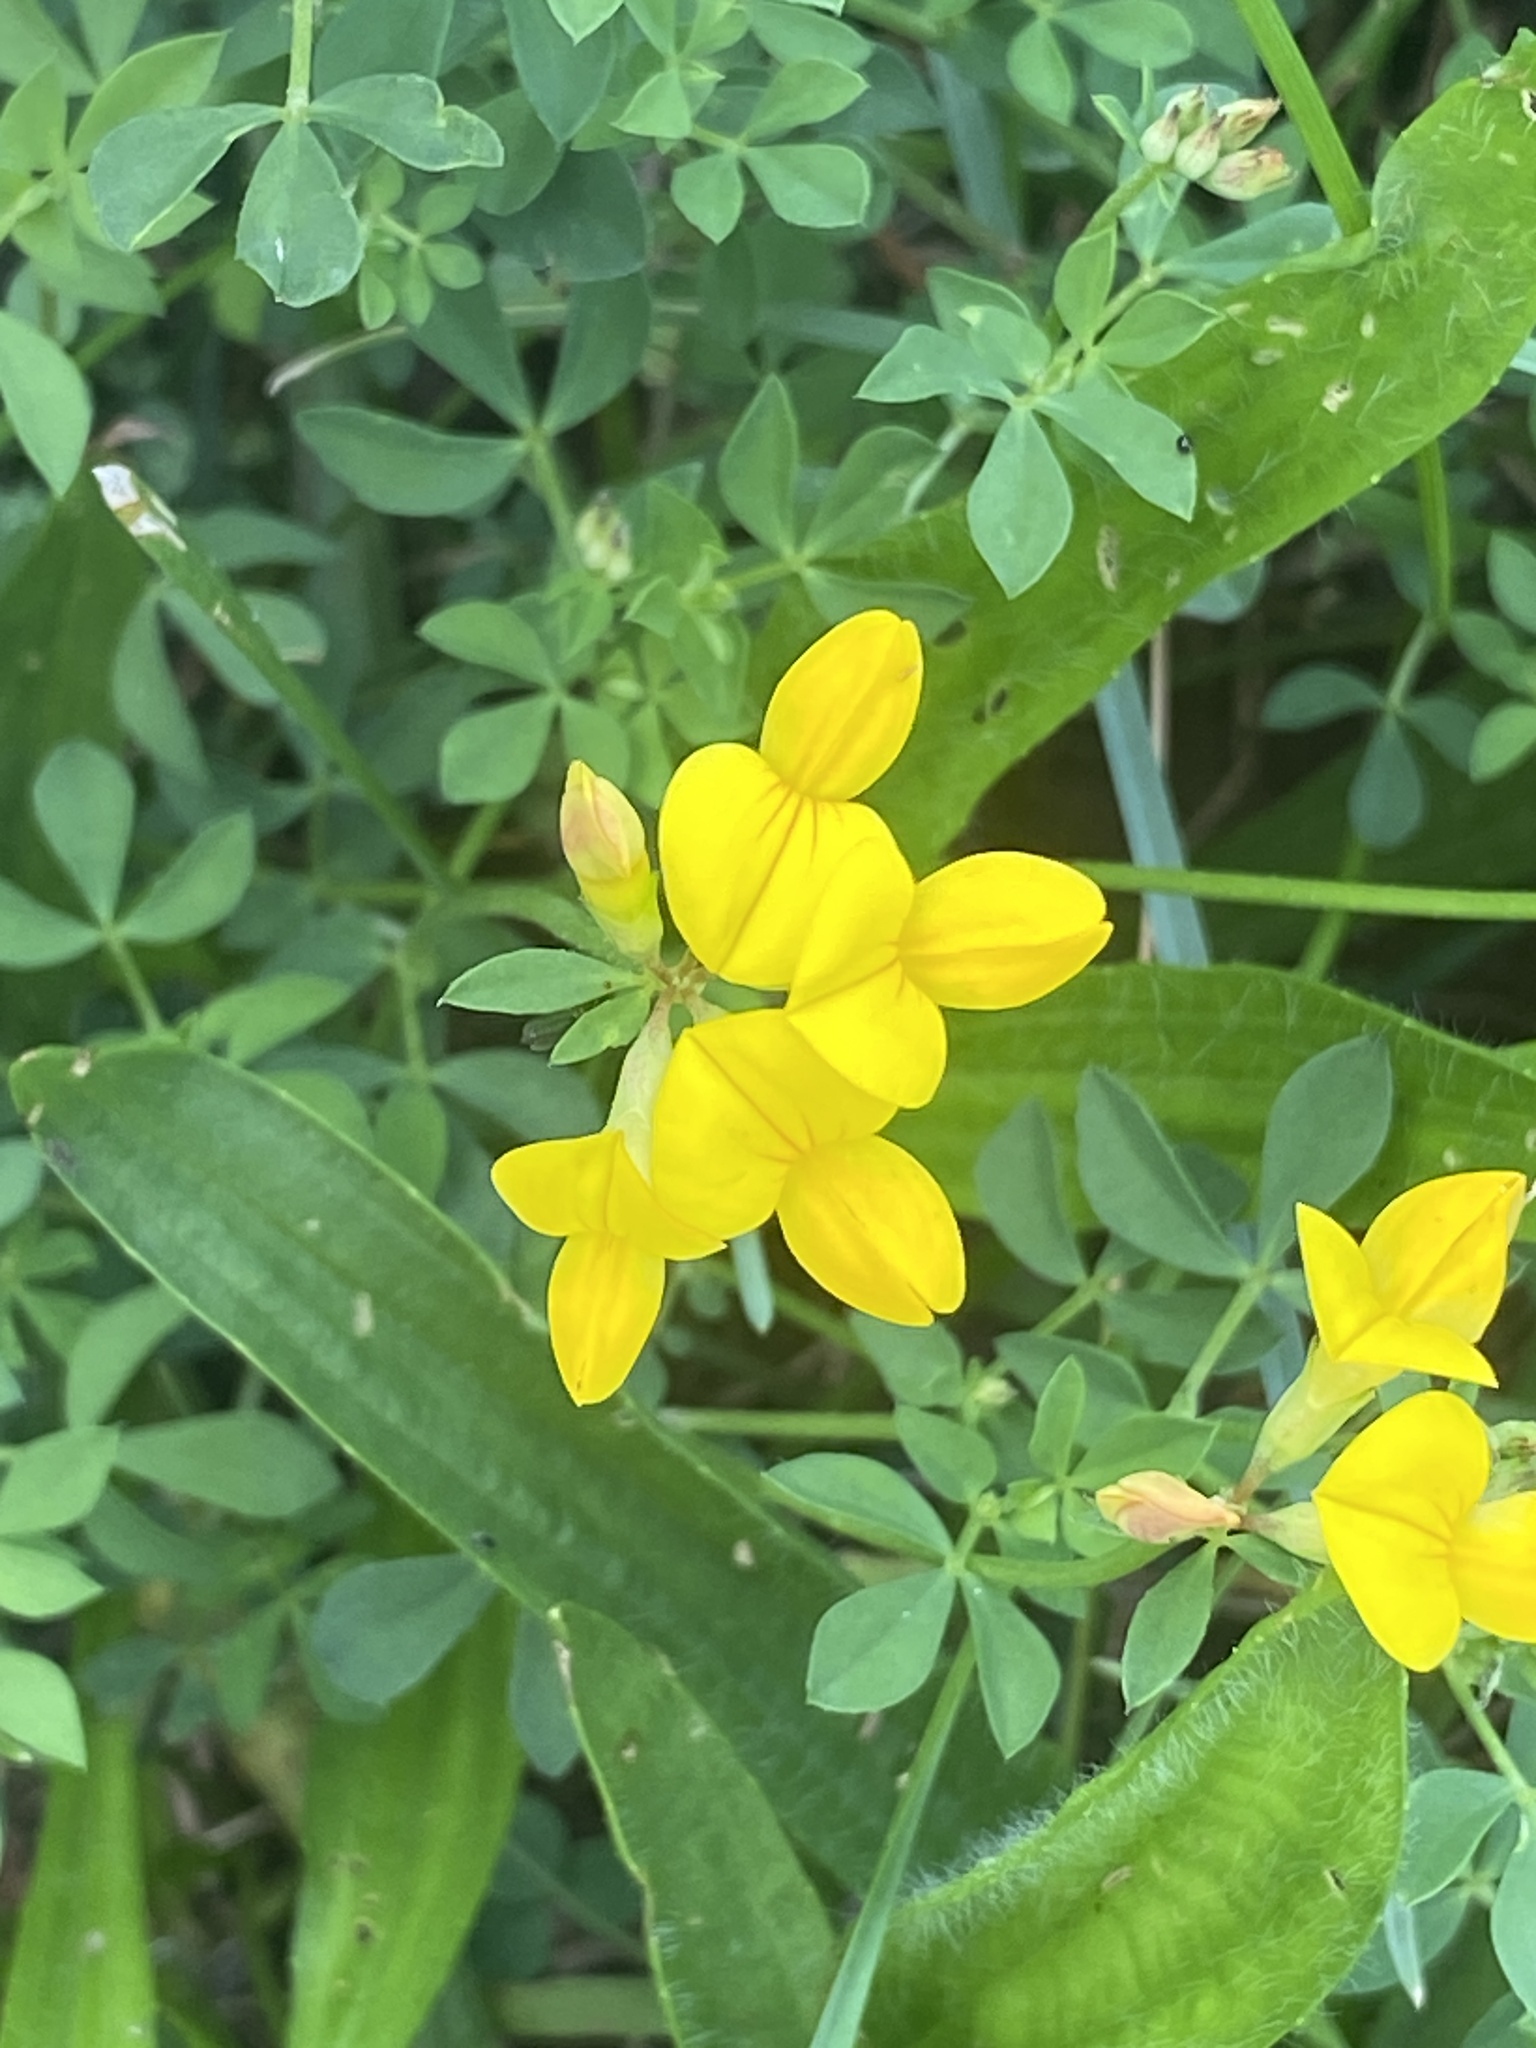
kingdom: Plantae
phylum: Tracheophyta
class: Magnoliopsida
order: Fabales
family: Fabaceae
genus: Lotus
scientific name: Lotus corniculatus
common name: Common bird's-foot-trefoil
